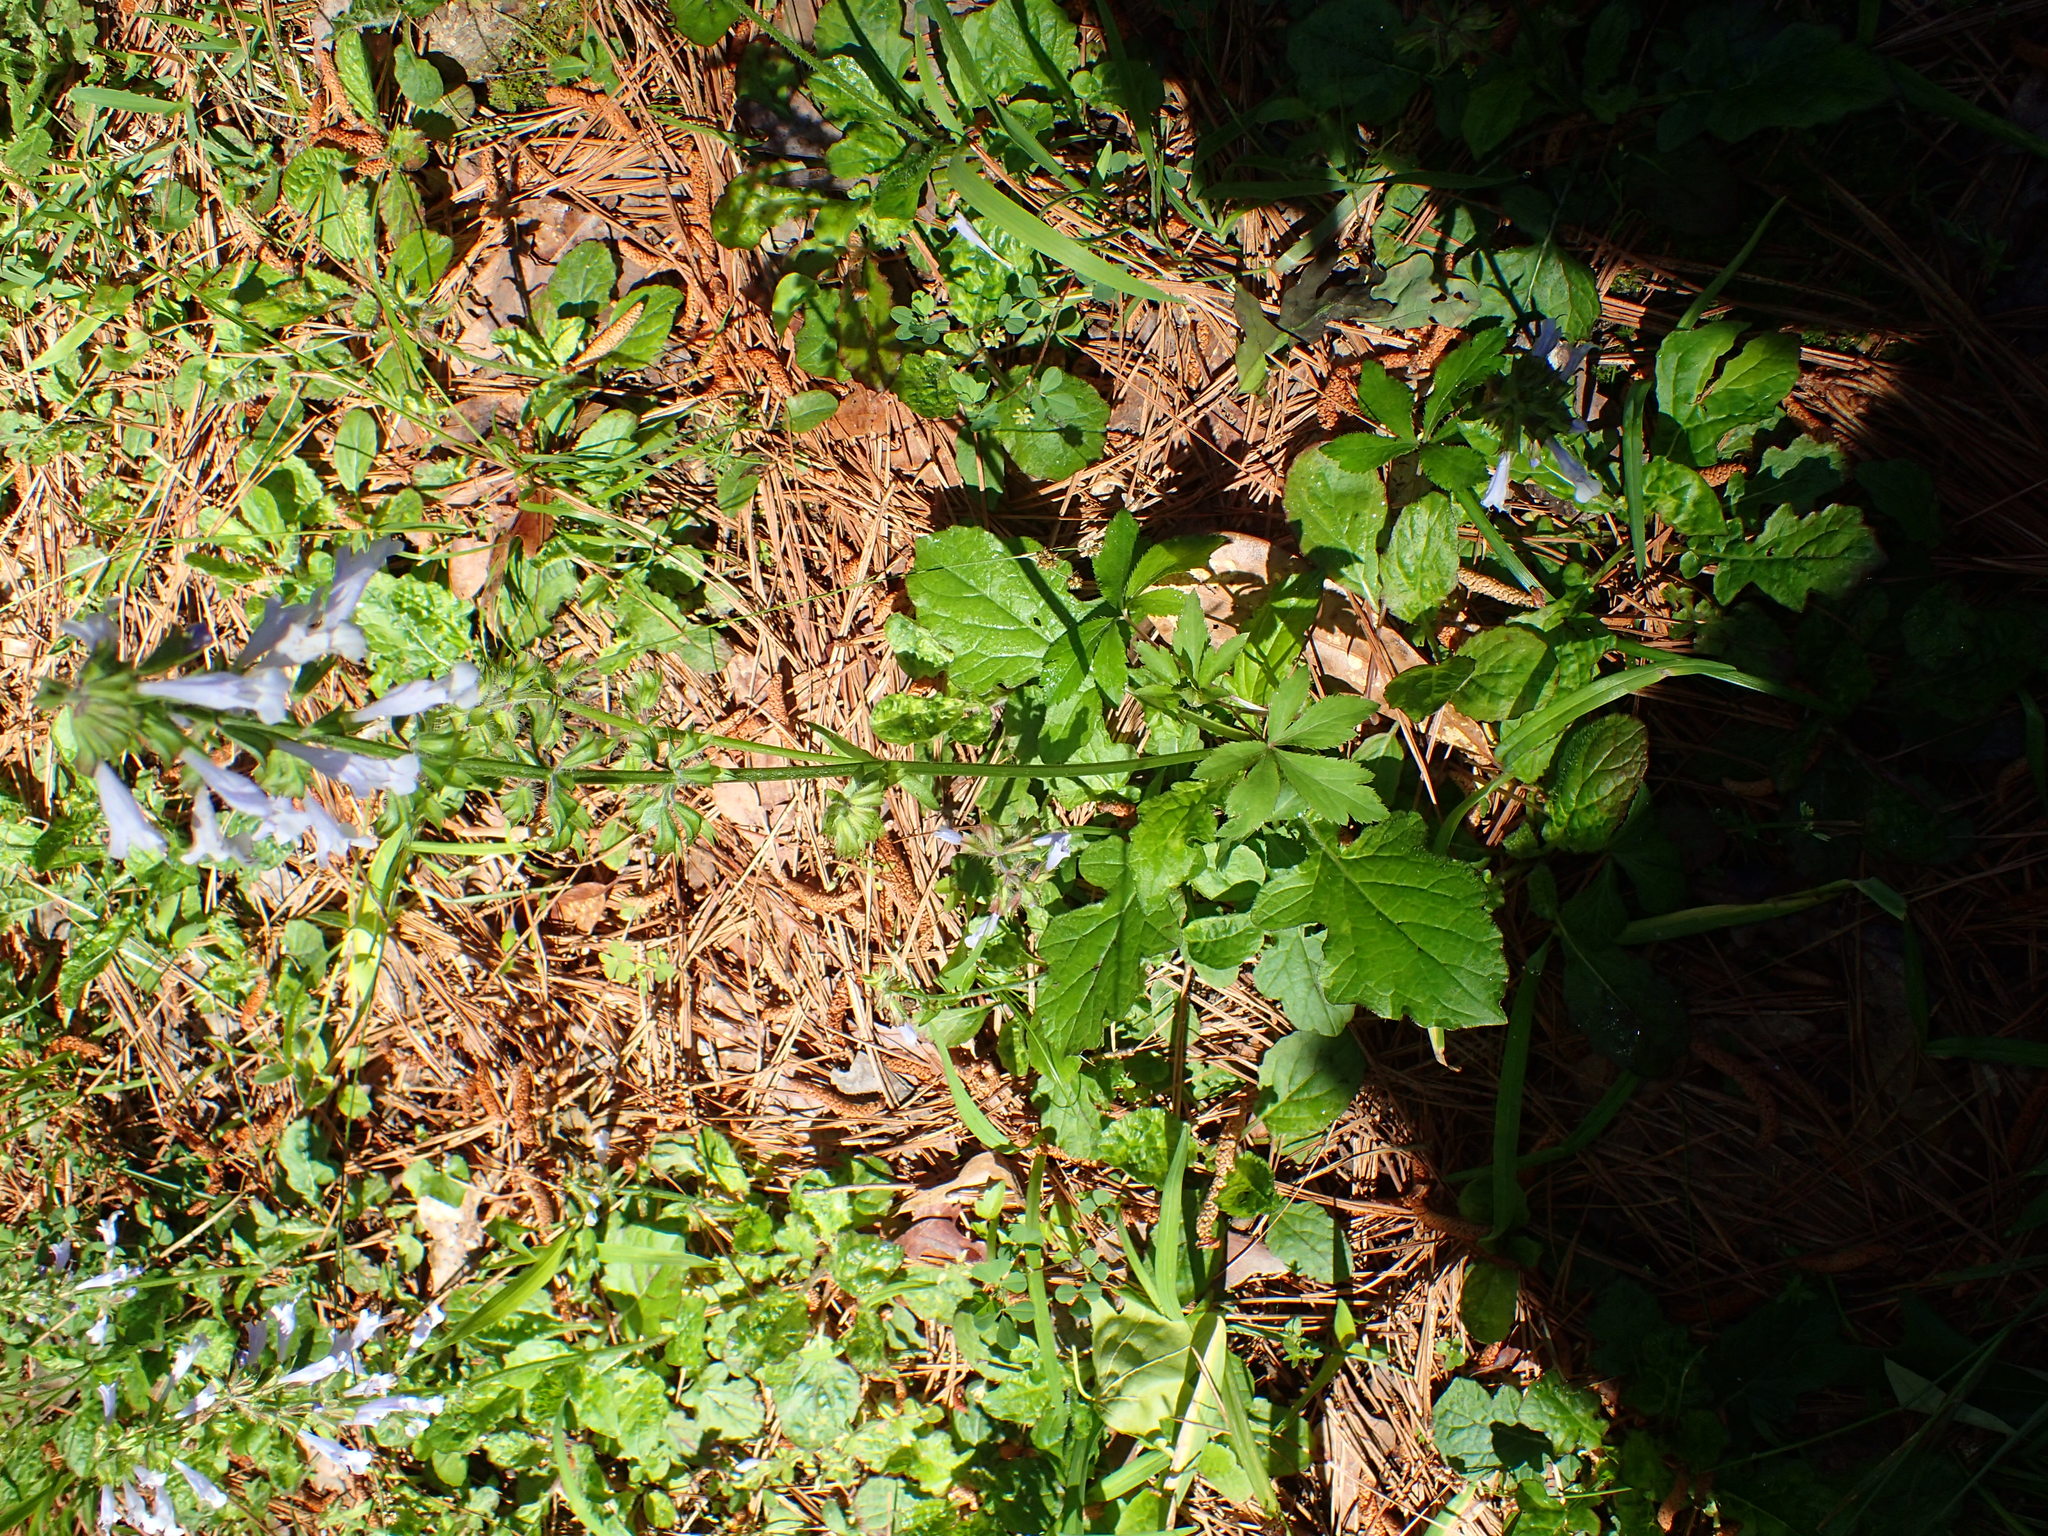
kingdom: Plantae
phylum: Tracheophyta
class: Magnoliopsida
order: Lamiales
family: Lamiaceae
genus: Salvia
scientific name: Salvia lyrata
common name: Cancerweed
